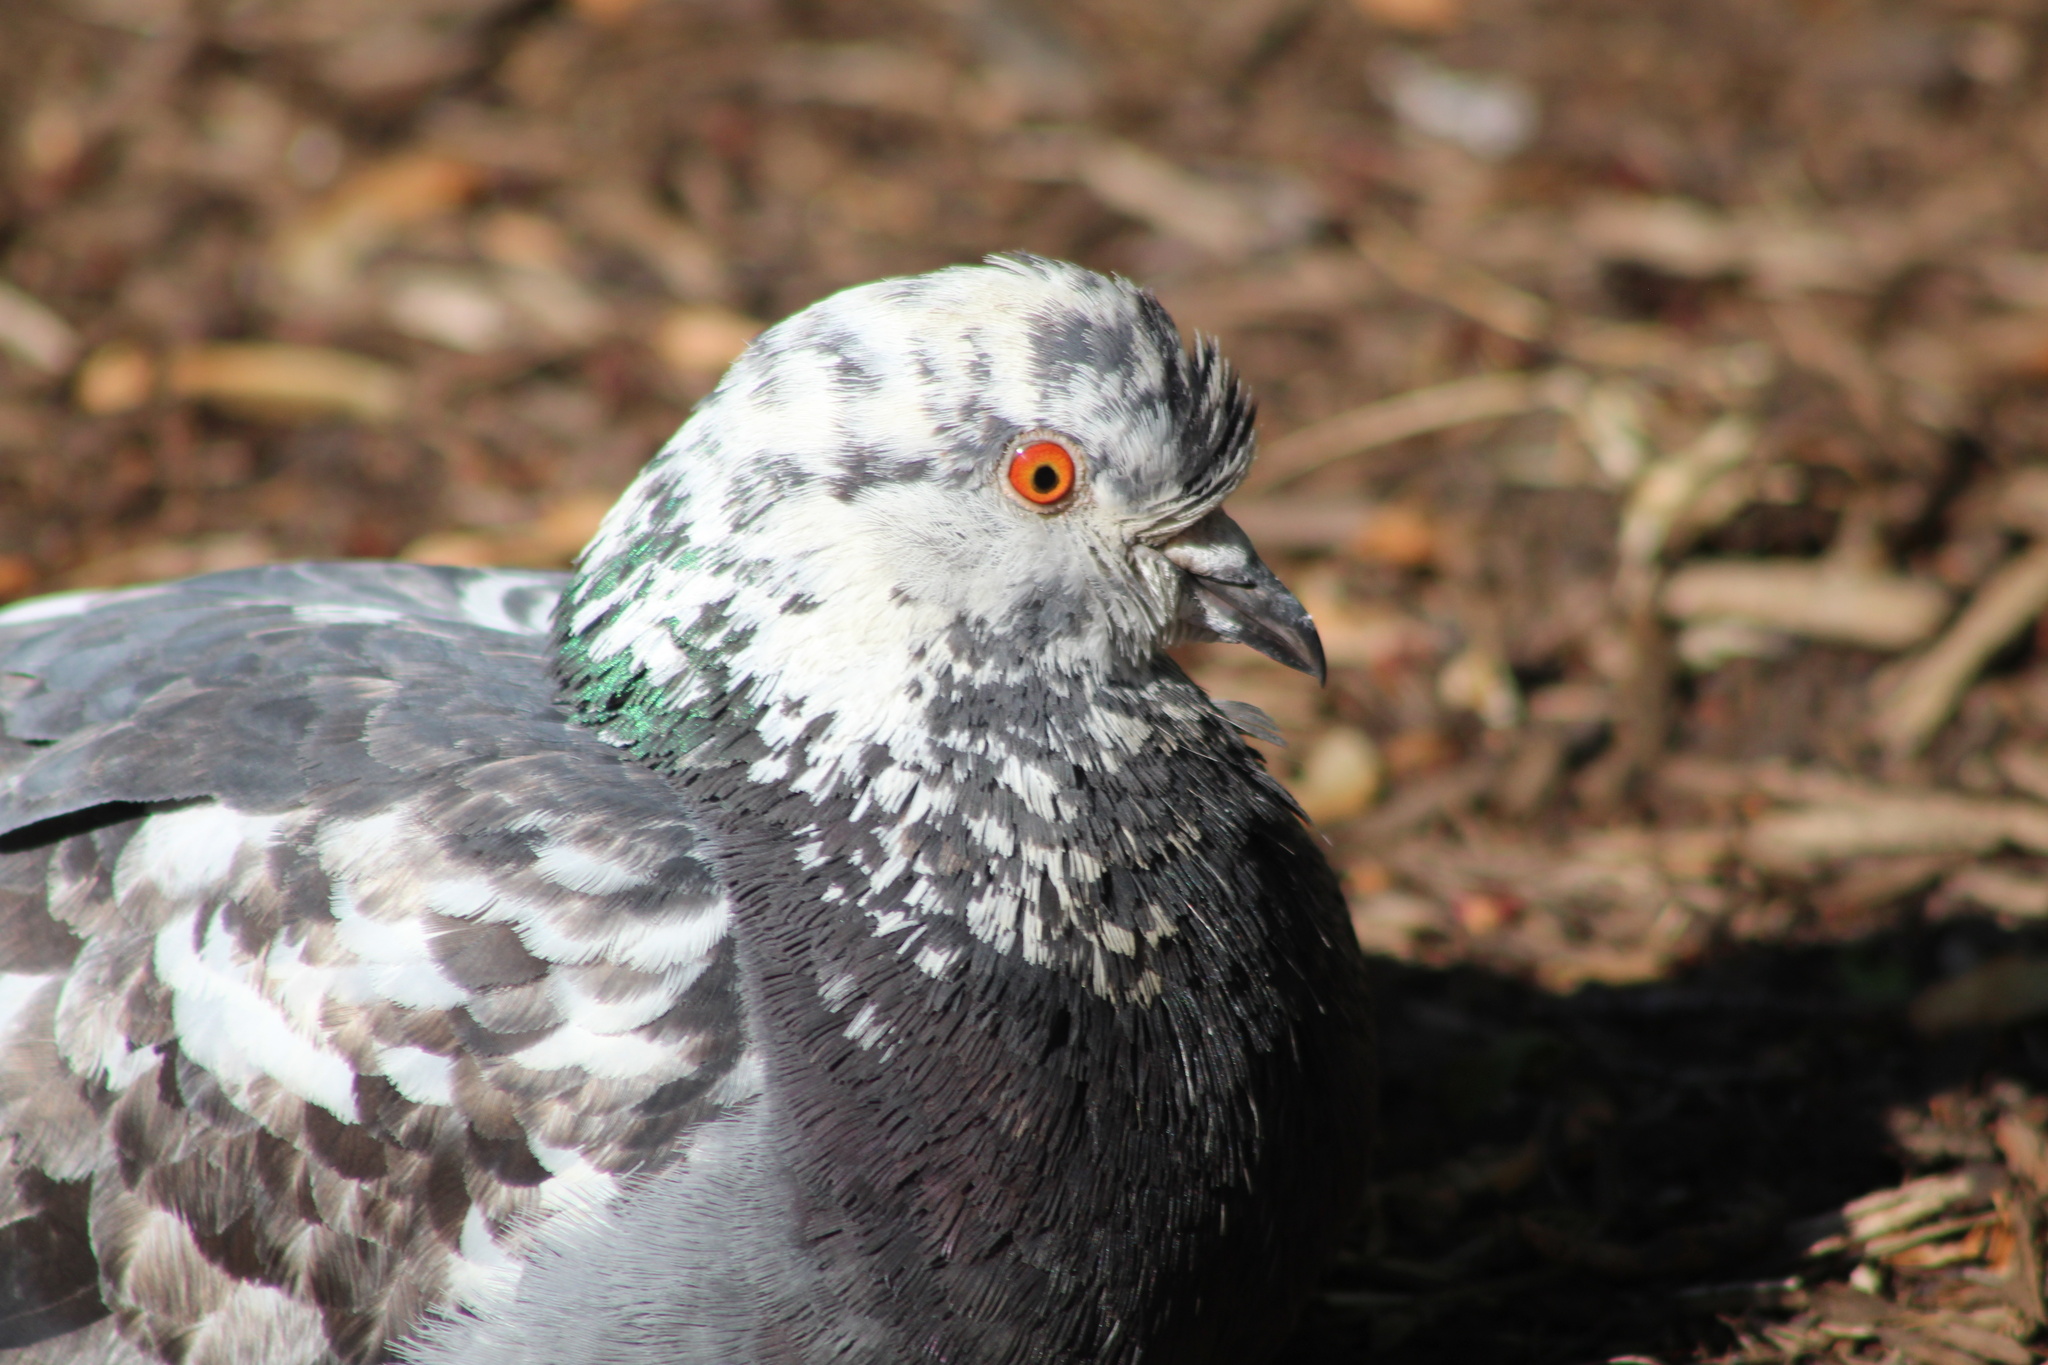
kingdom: Animalia
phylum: Chordata
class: Aves
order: Columbiformes
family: Columbidae
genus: Columba
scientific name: Columba livia
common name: Rock pigeon
